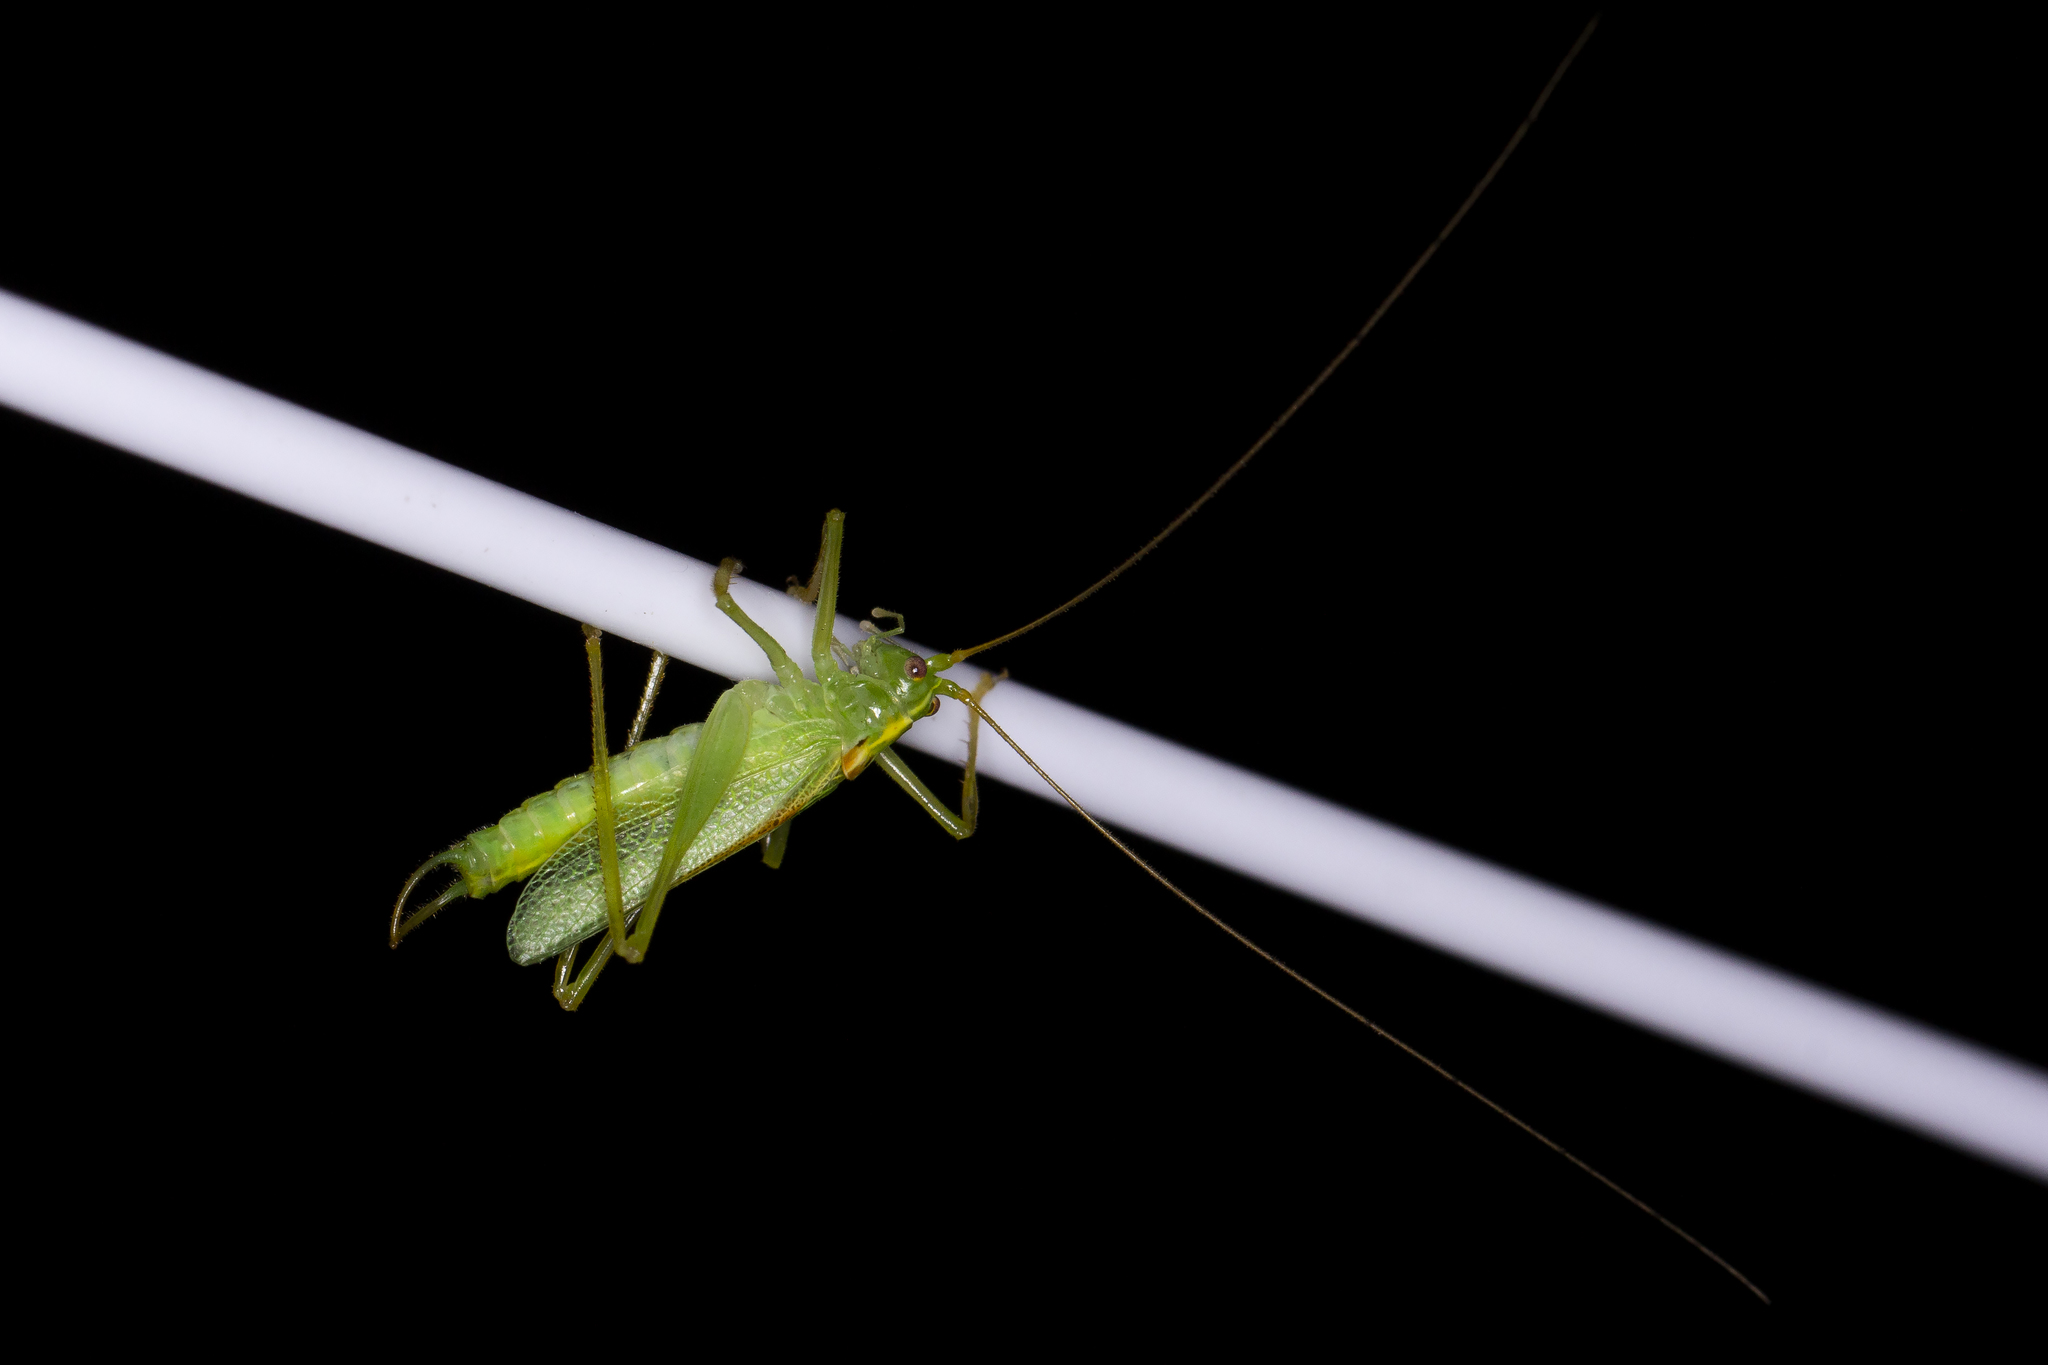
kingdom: Animalia
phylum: Arthropoda
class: Insecta
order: Orthoptera
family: Tettigoniidae
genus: Meconema
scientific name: Meconema thalassinum
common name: Oak bush-cricket
